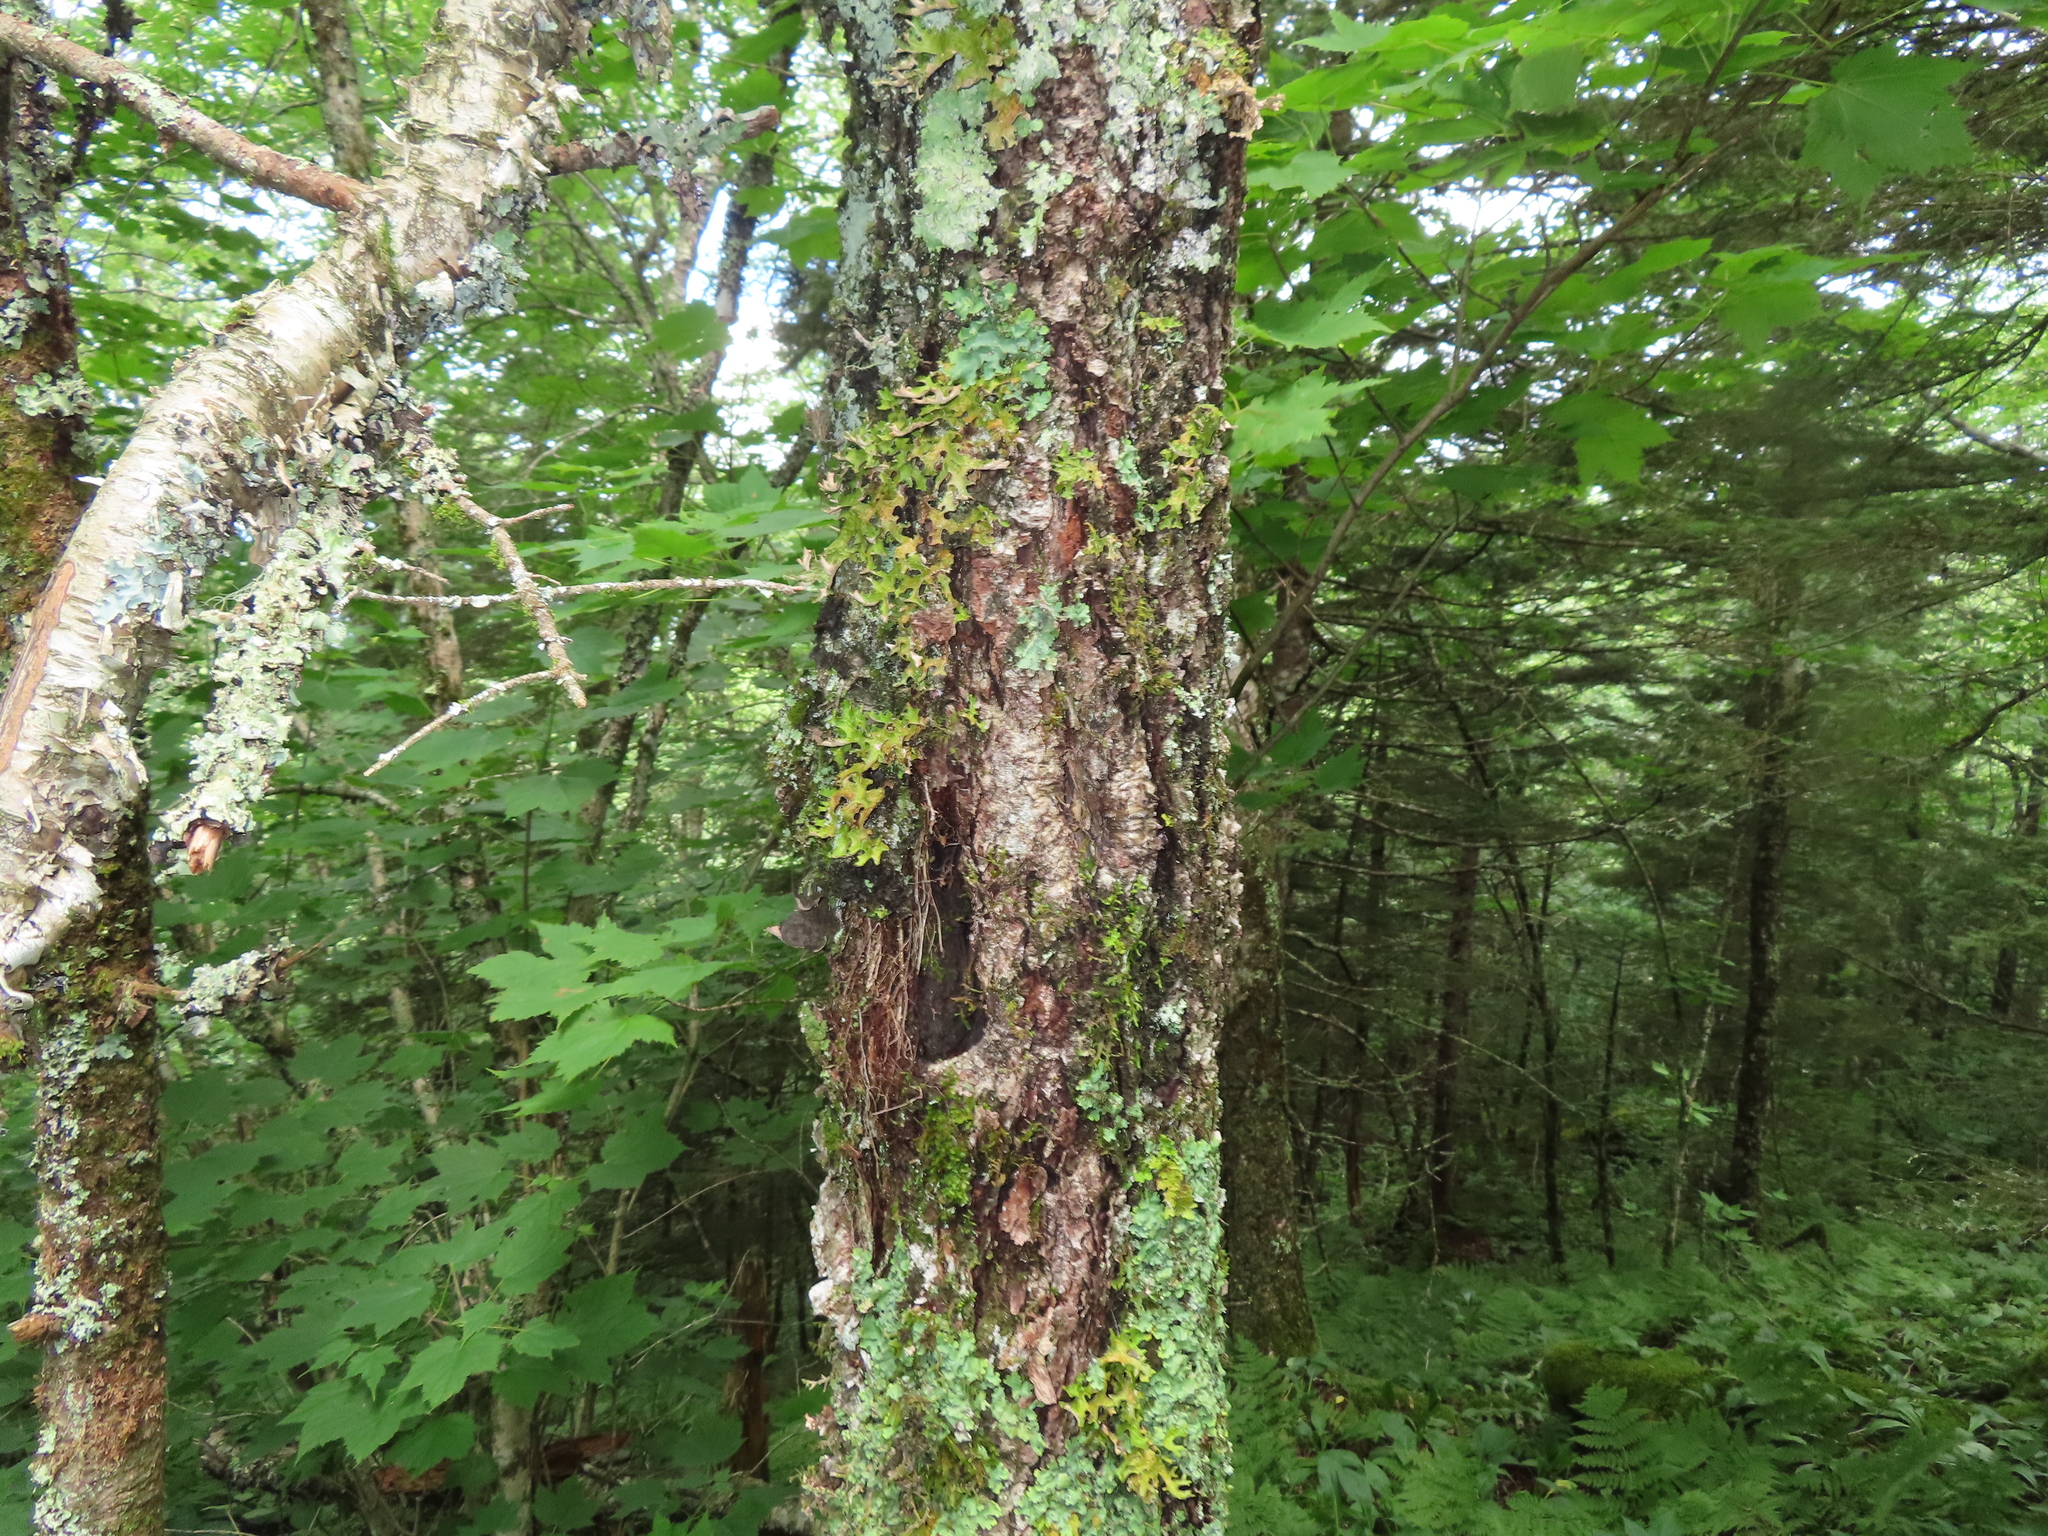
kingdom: Fungi
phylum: Ascomycota
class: Lecanoromycetes
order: Peltigerales
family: Lobariaceae
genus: Lobaria
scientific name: Lobaria pulmonaria
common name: Lungwort
